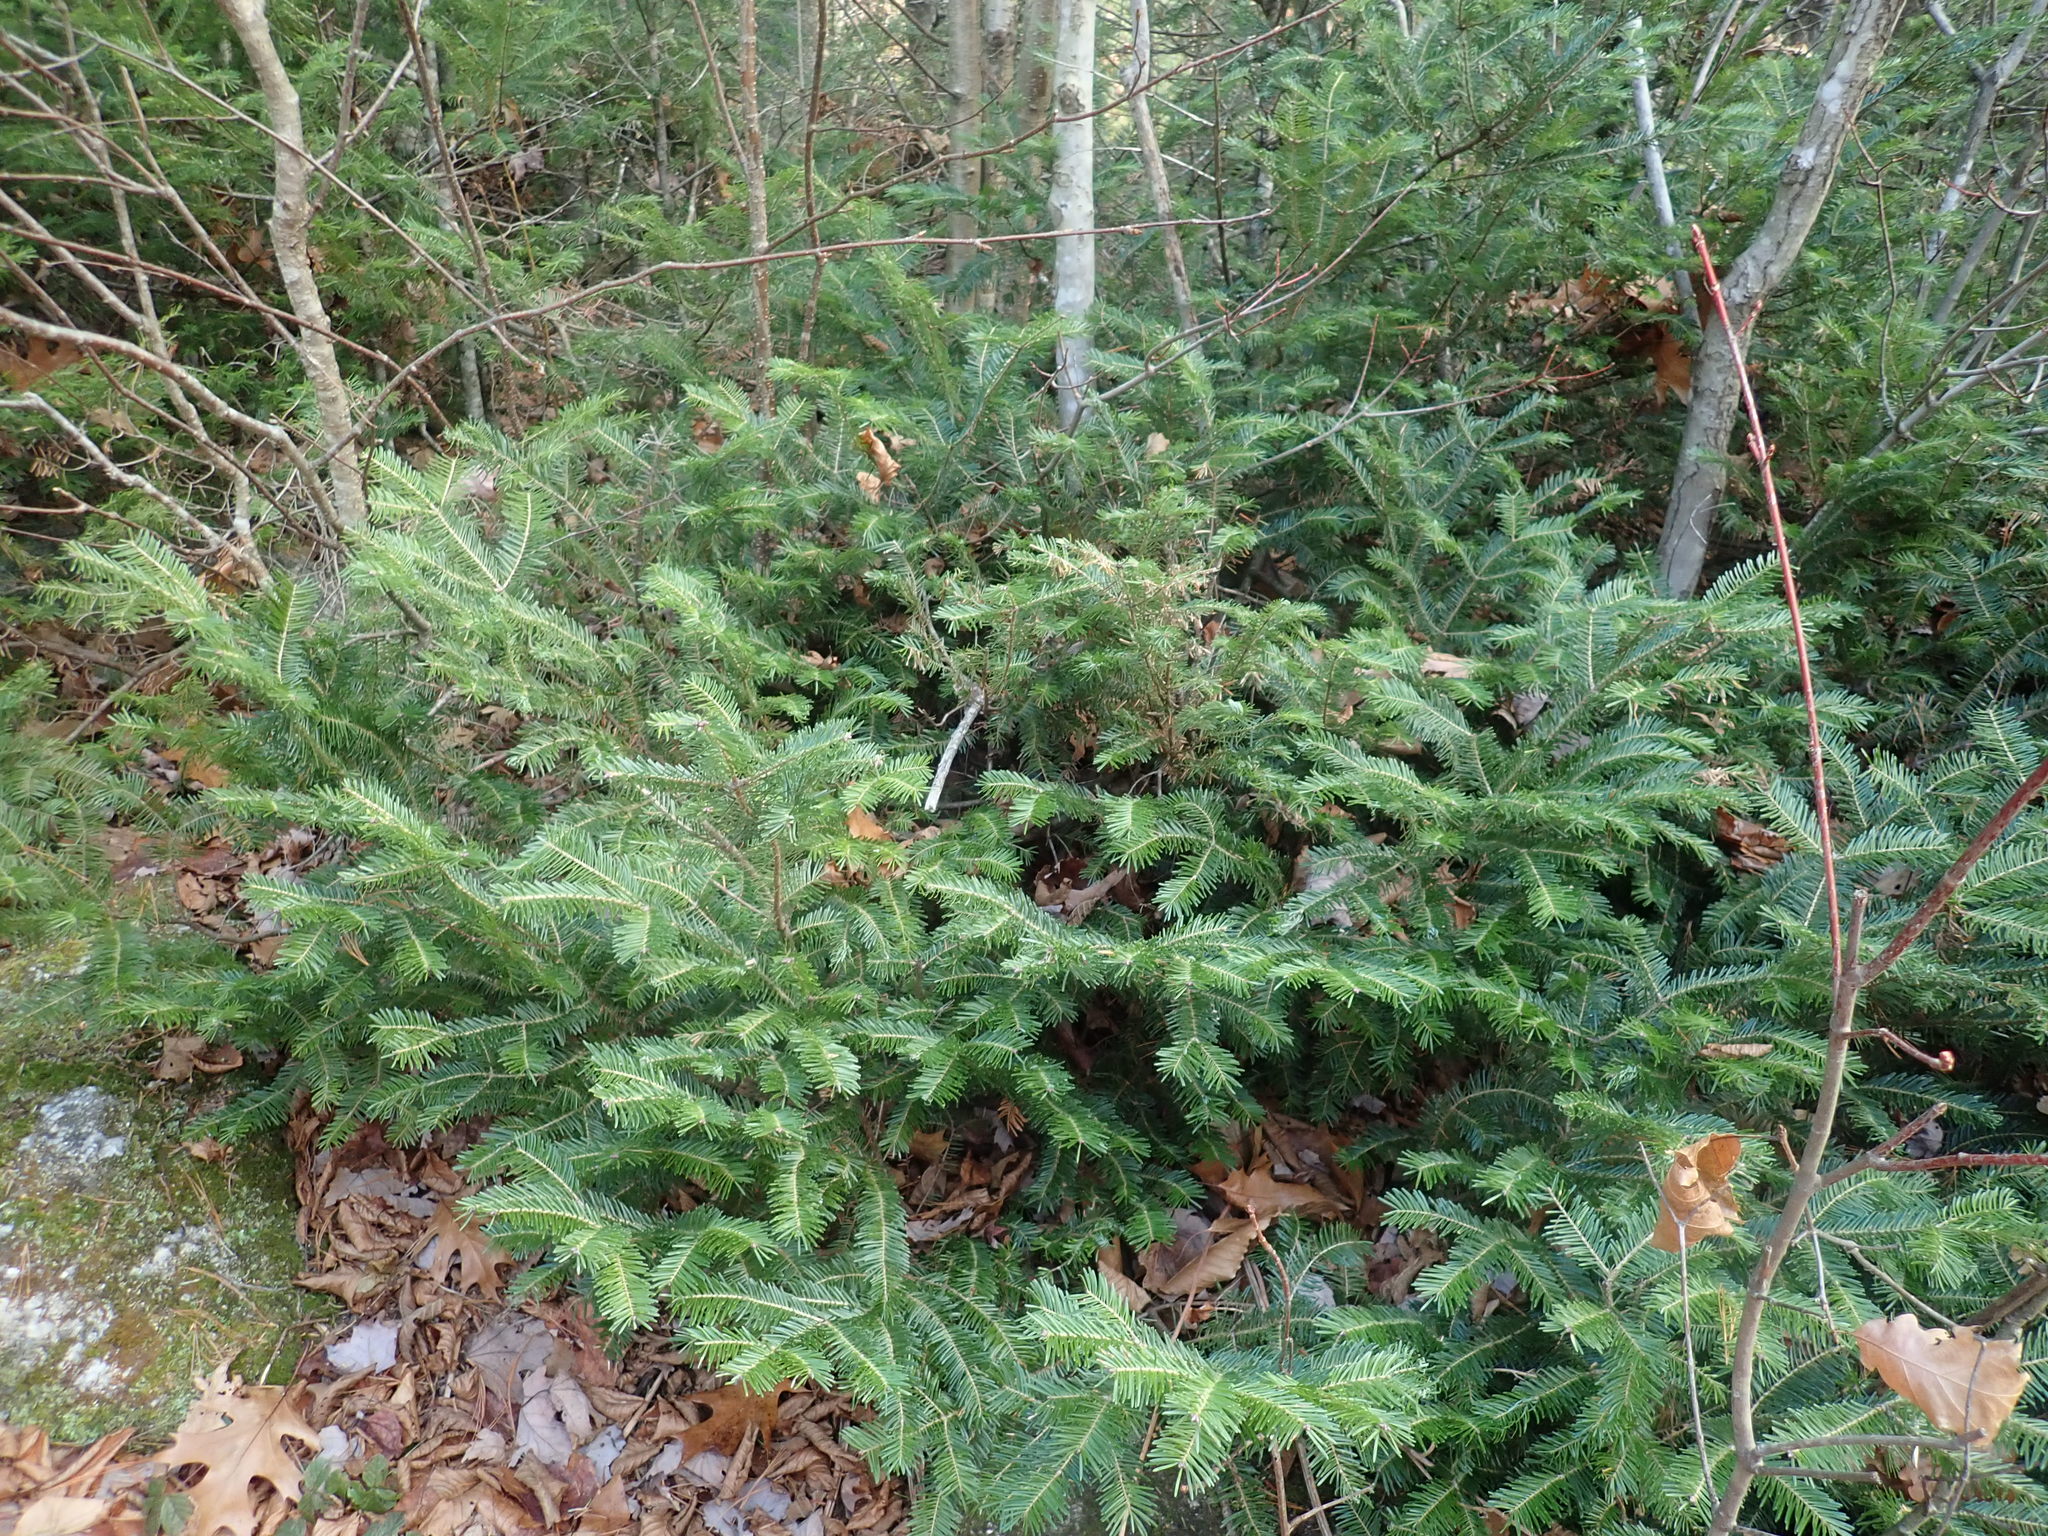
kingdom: Plantae
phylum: Tracheophyta
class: Pinopsida
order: Pinales
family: Pinaceae
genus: Abies
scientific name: Abies balsamea
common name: Balsam fir
